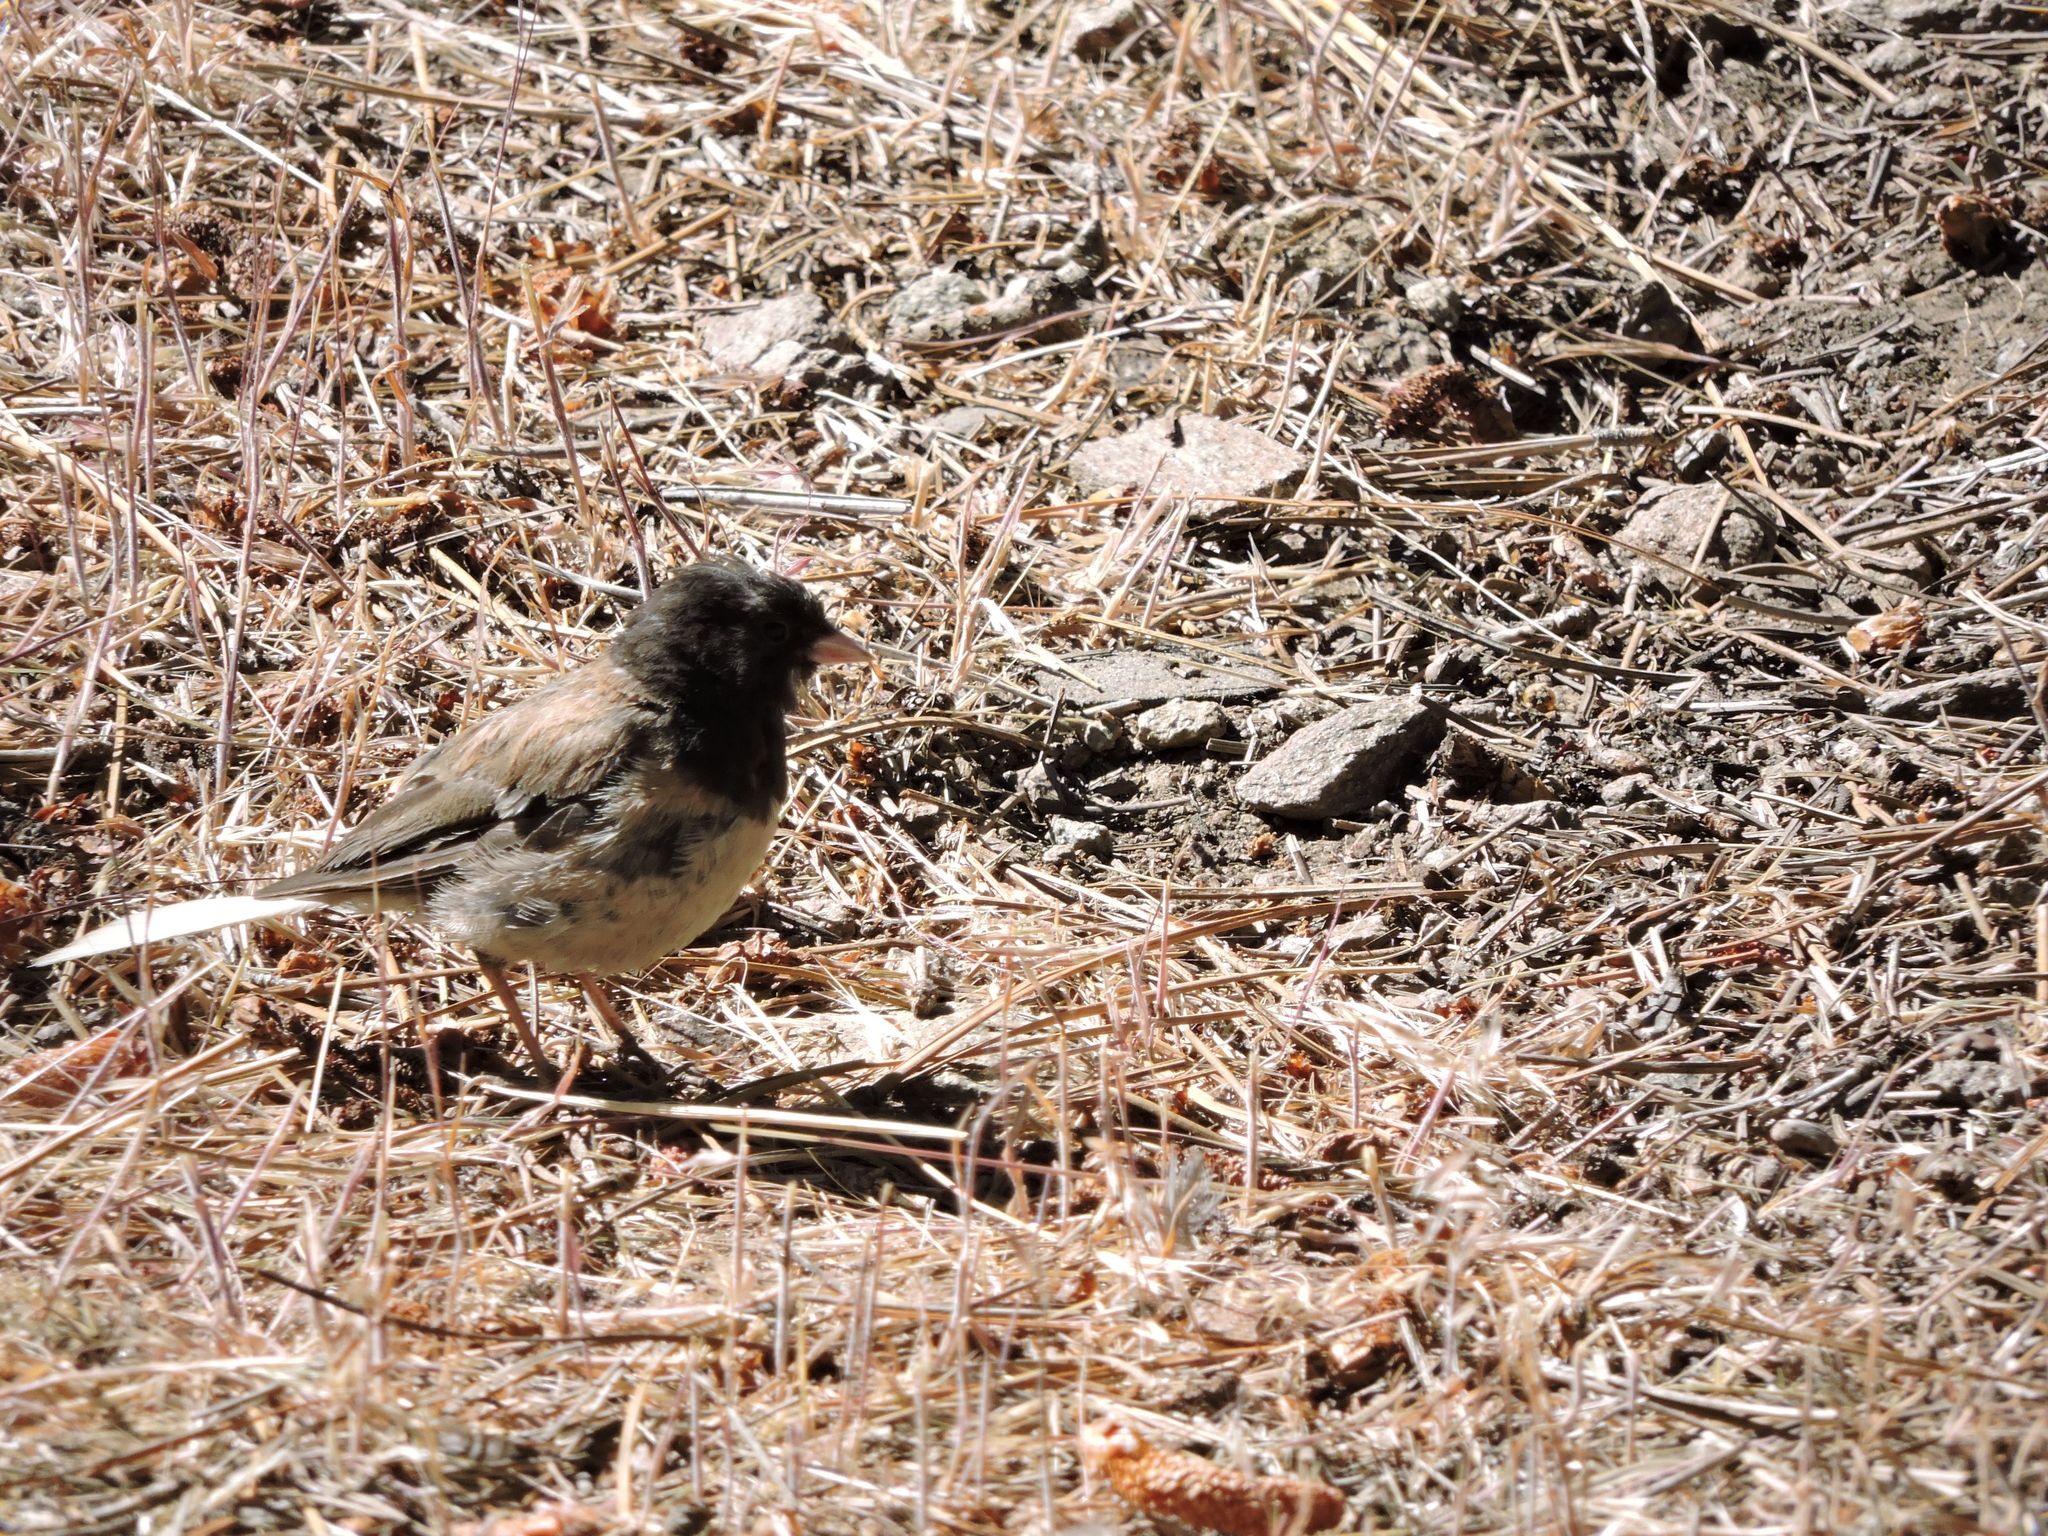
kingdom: Animalia
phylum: Chordata
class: Aves
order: Passeriformes
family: Passerellidae
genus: Junco
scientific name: Junco hyemalis
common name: Dark-eyed junco
